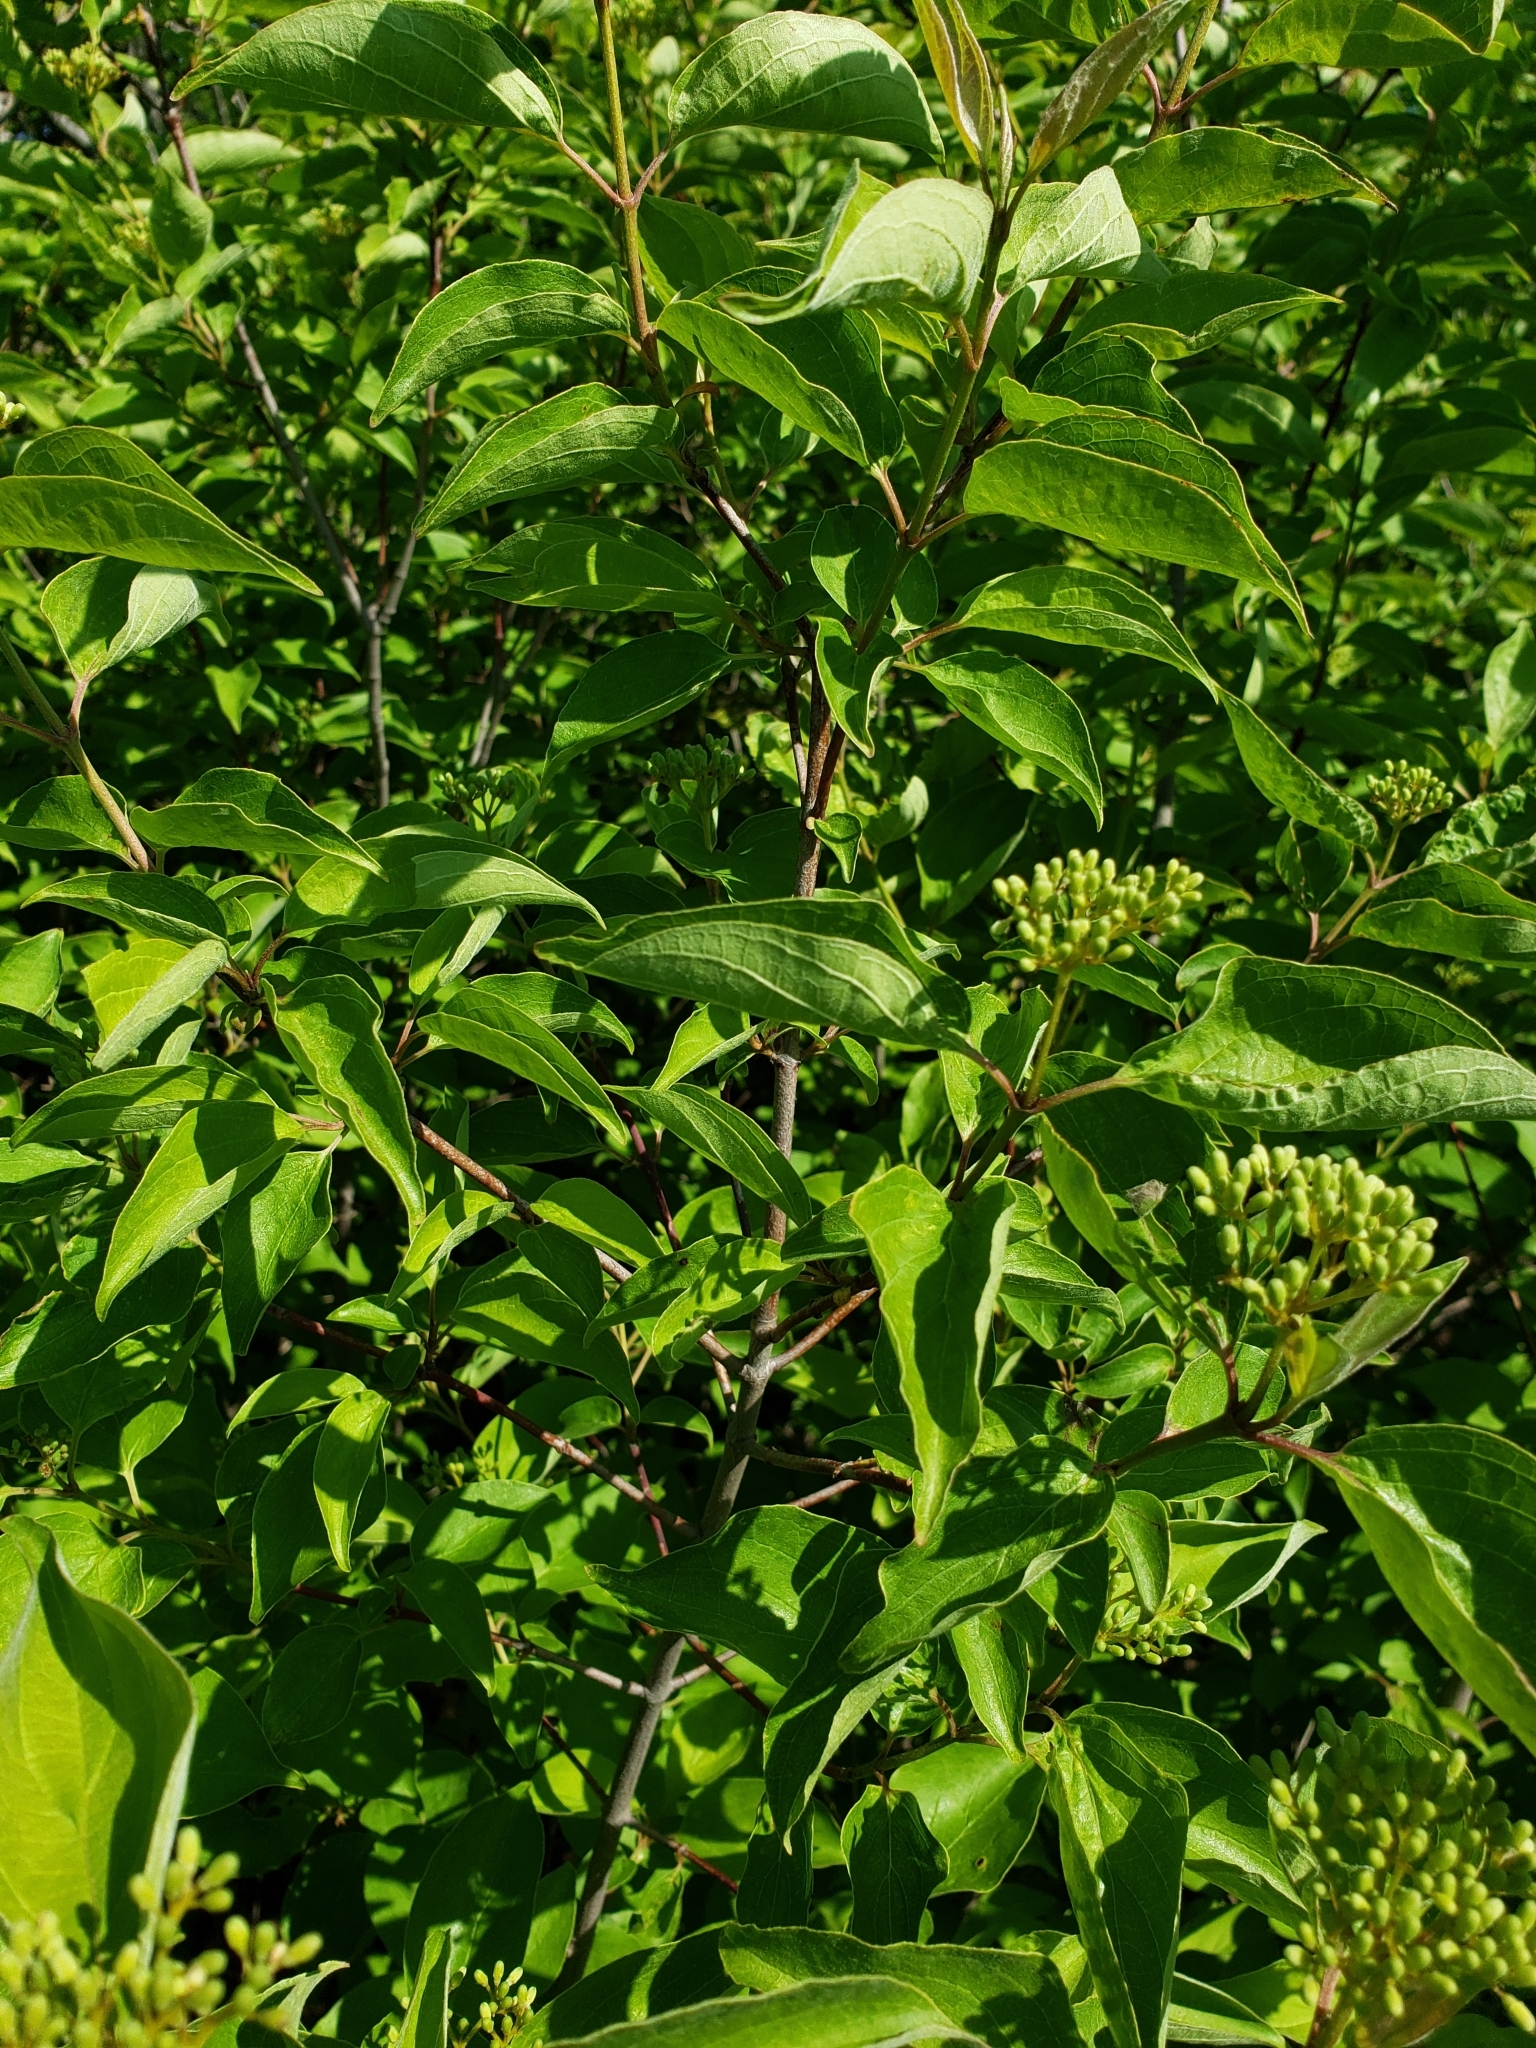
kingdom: Plantae
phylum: Tracheophyta
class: Magnoliopsida
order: Cornales
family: Cornaceae
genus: Cornus
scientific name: Cornus drummondii
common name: Rough-leaf dogwood
